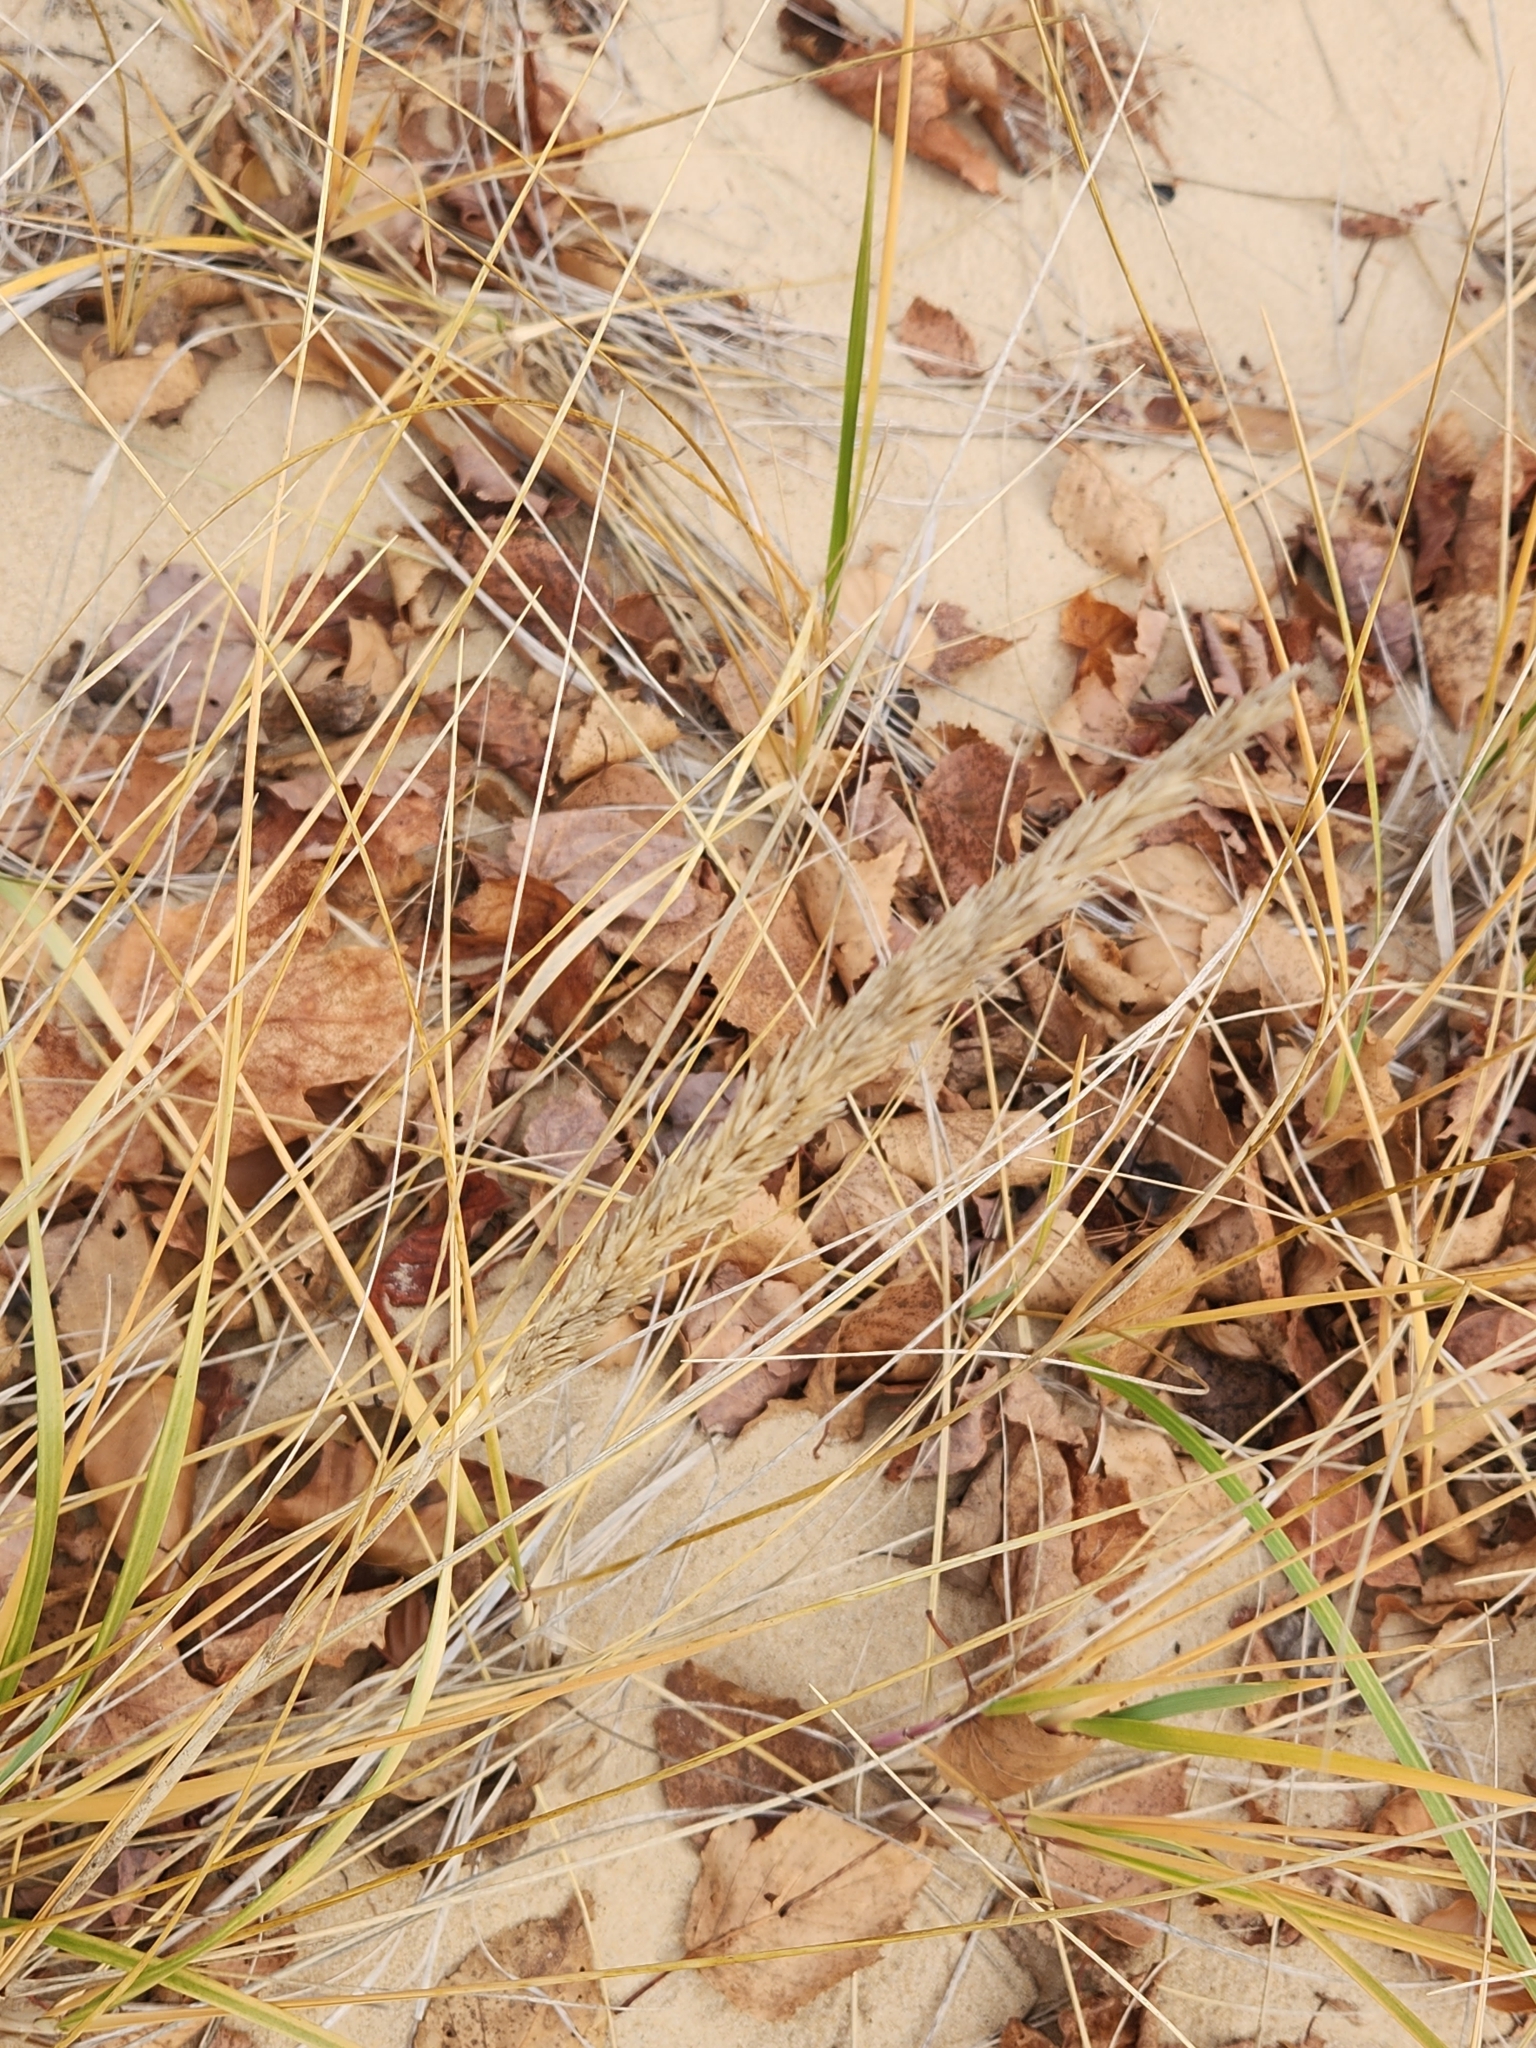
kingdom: Plantae
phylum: Tracheophyta
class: Liliopsida
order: Poales
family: Poaceae
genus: Calamagrostis
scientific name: Calamagrostis breviligulata
